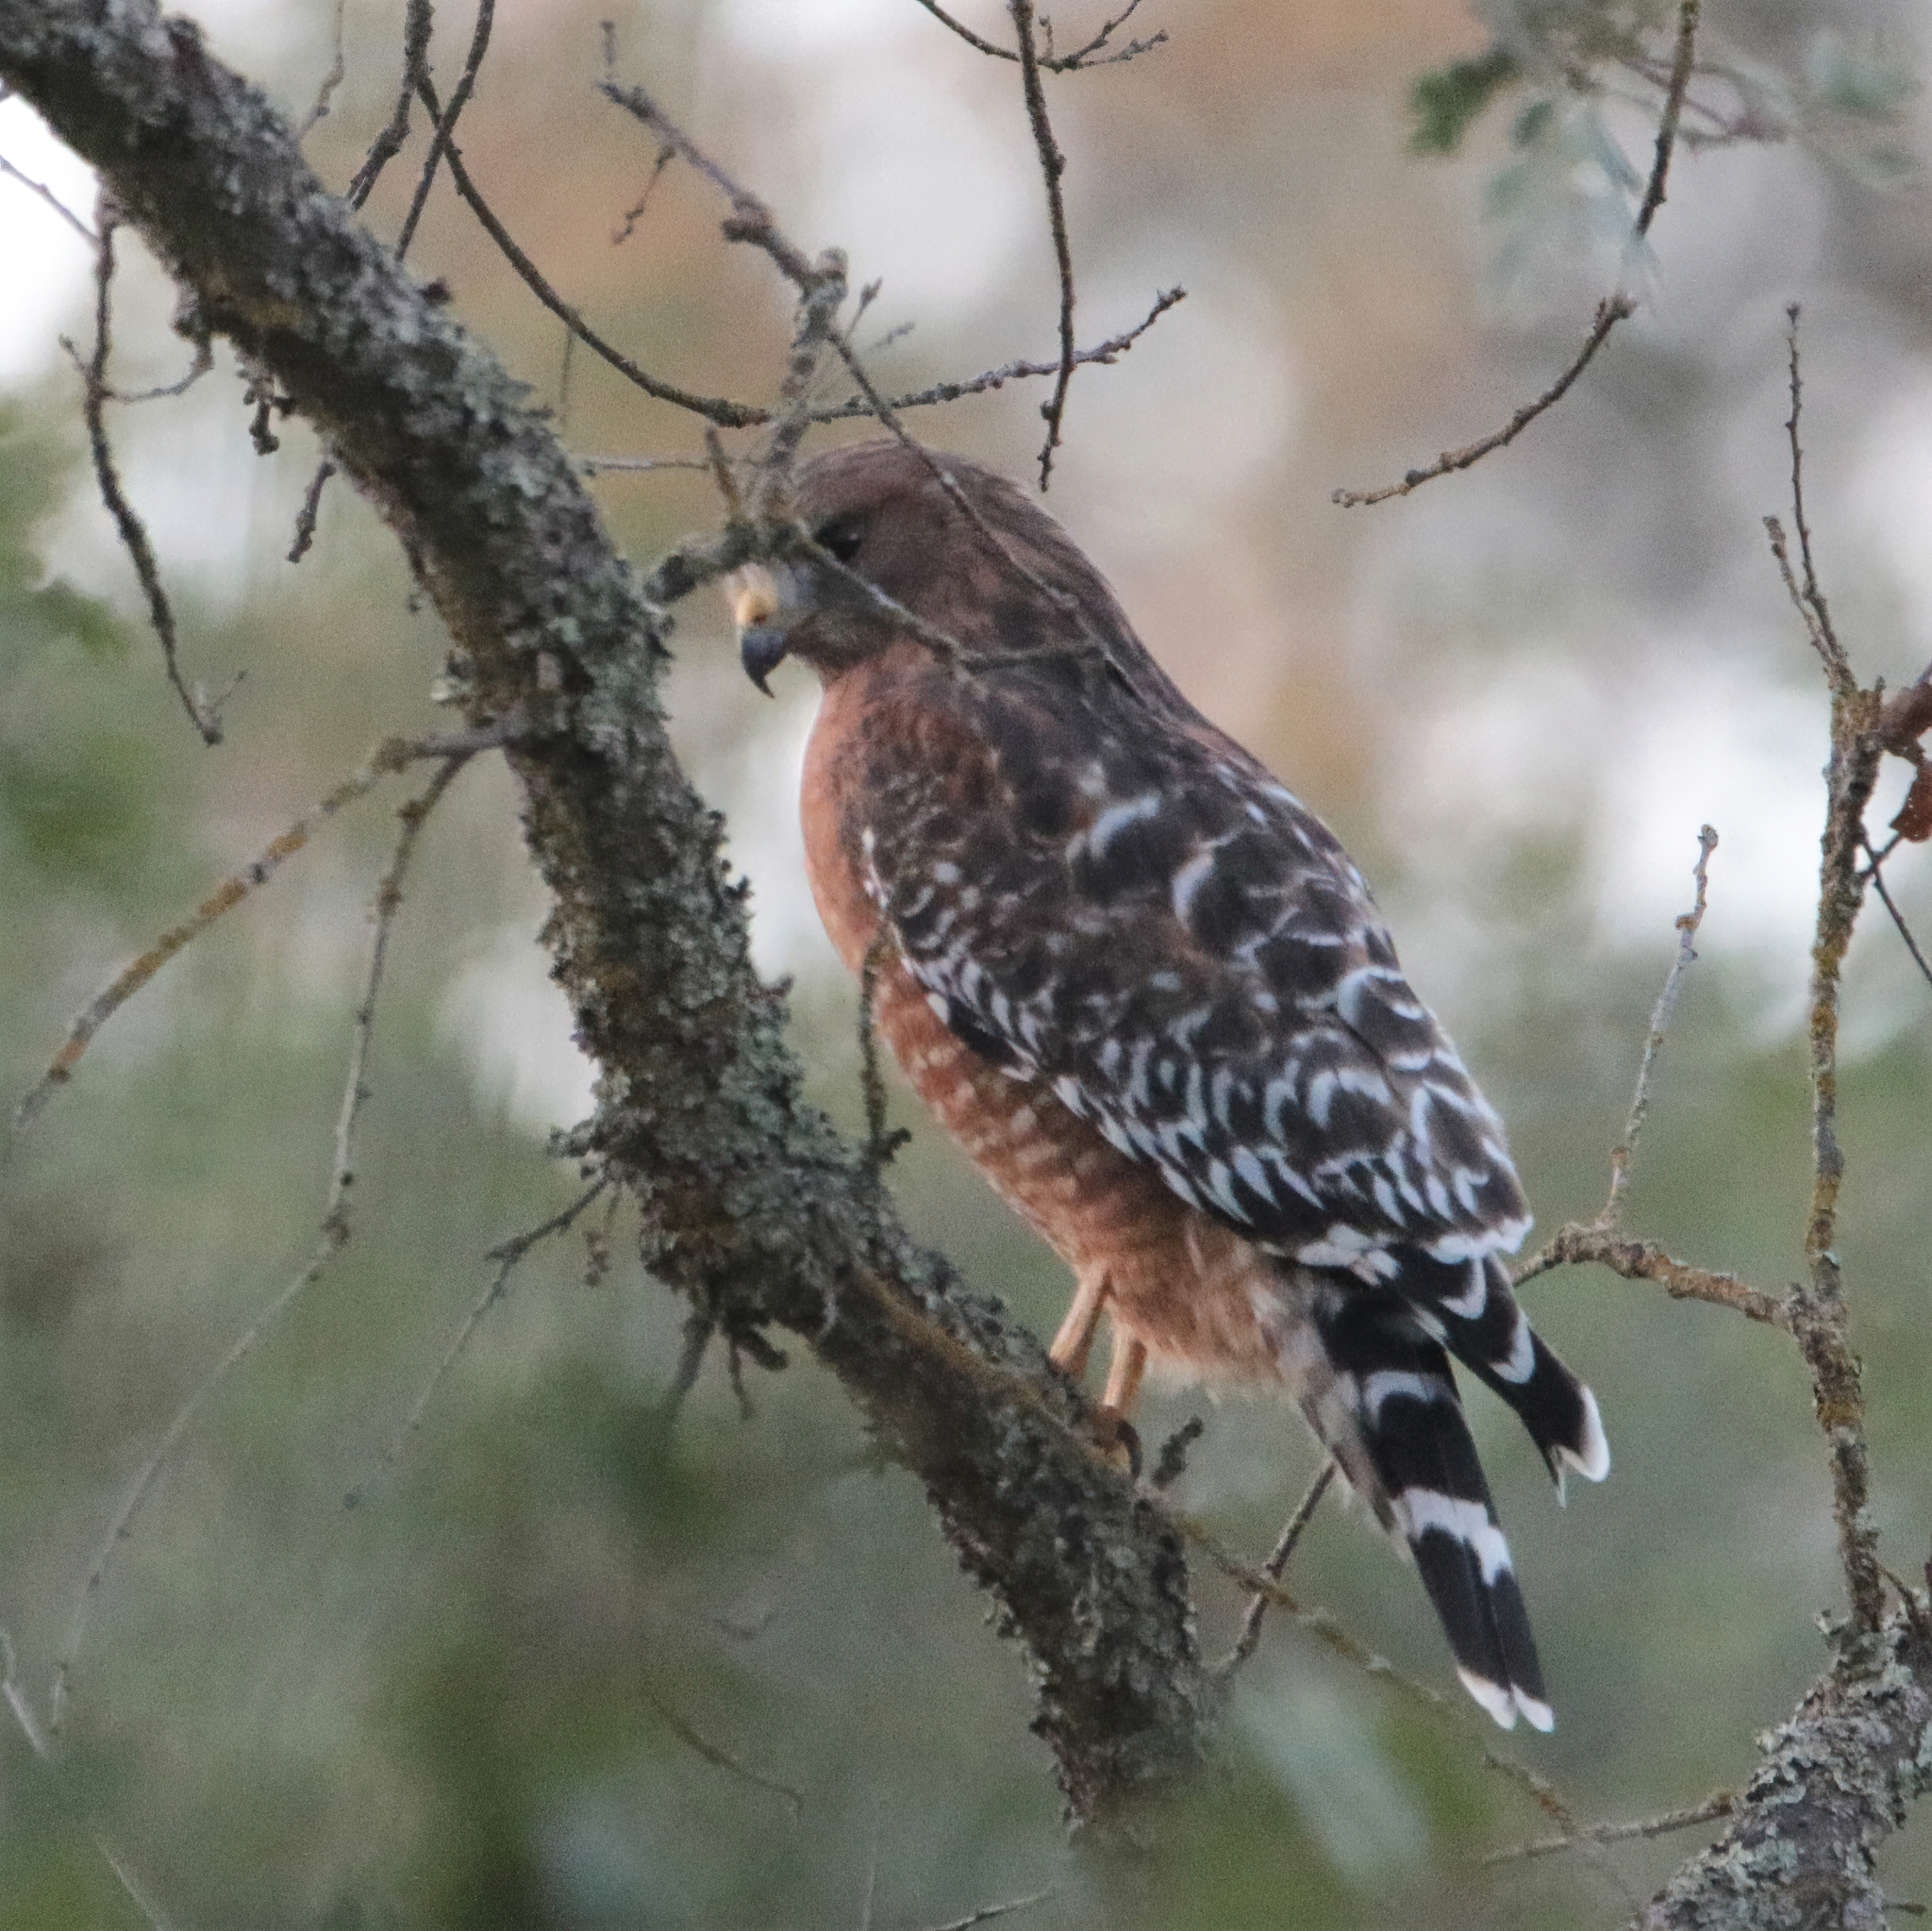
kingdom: Animalia
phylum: Chordata
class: Aves
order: Accipitriformes
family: Accipitridae
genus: Buteo
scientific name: Buteo lineatus
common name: Red-shouldered hawk
